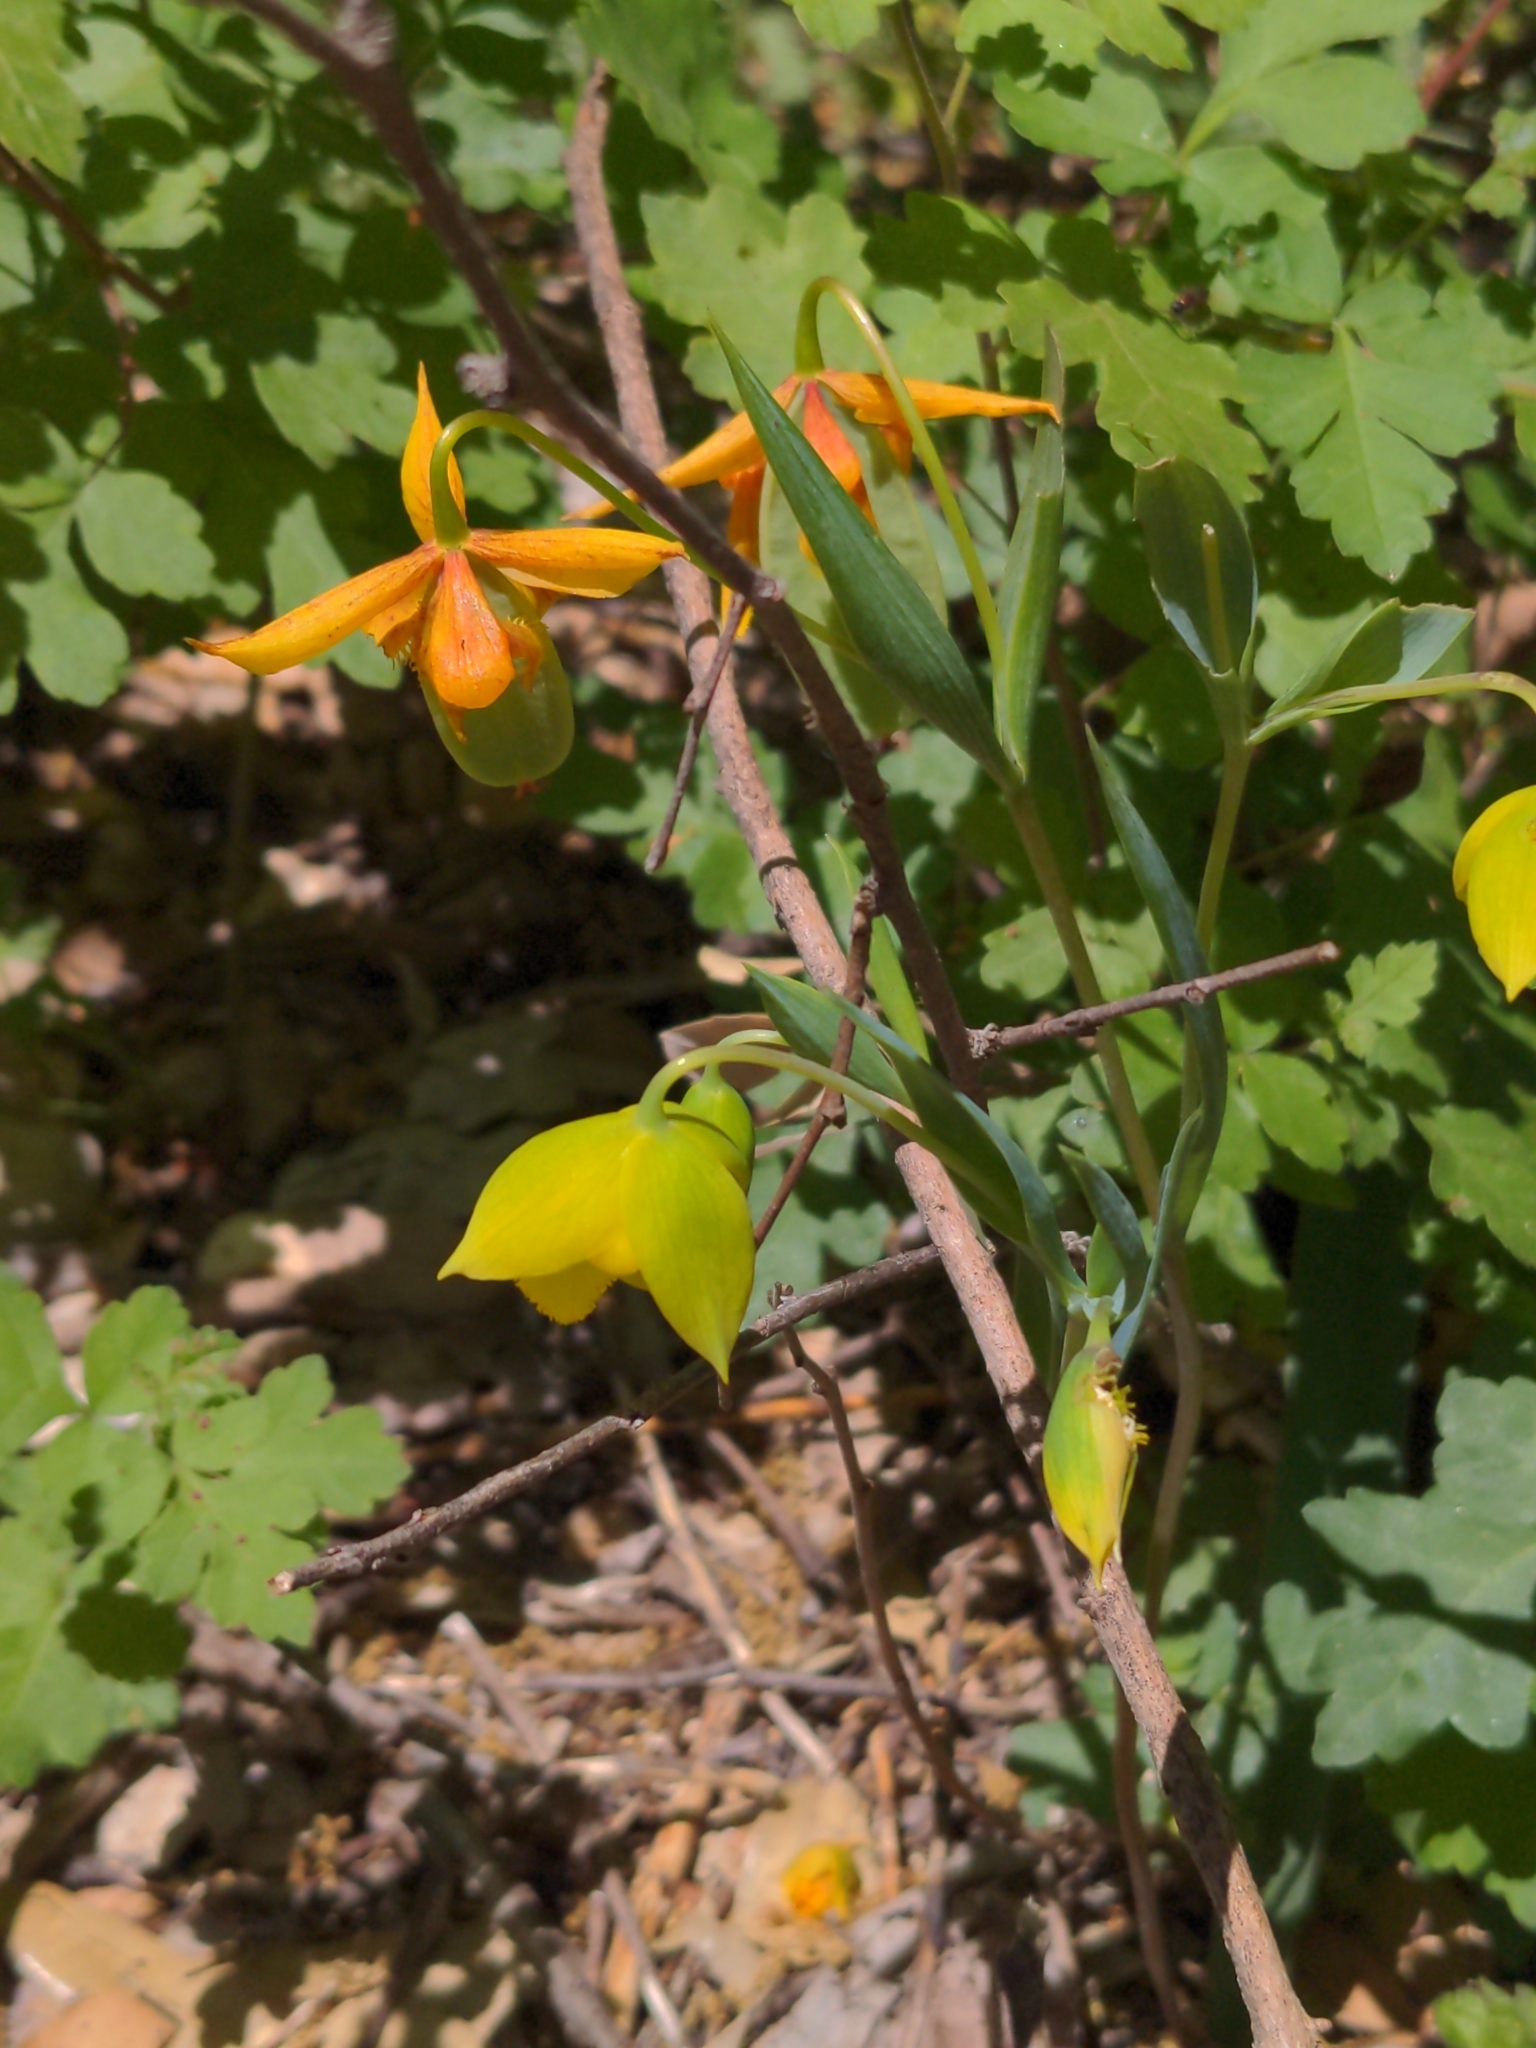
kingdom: Plantae
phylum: Tracheophyta
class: Liliopsida
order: Liliales
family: Liliaceae
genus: Calochortus
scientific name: Calochortus amabilis
